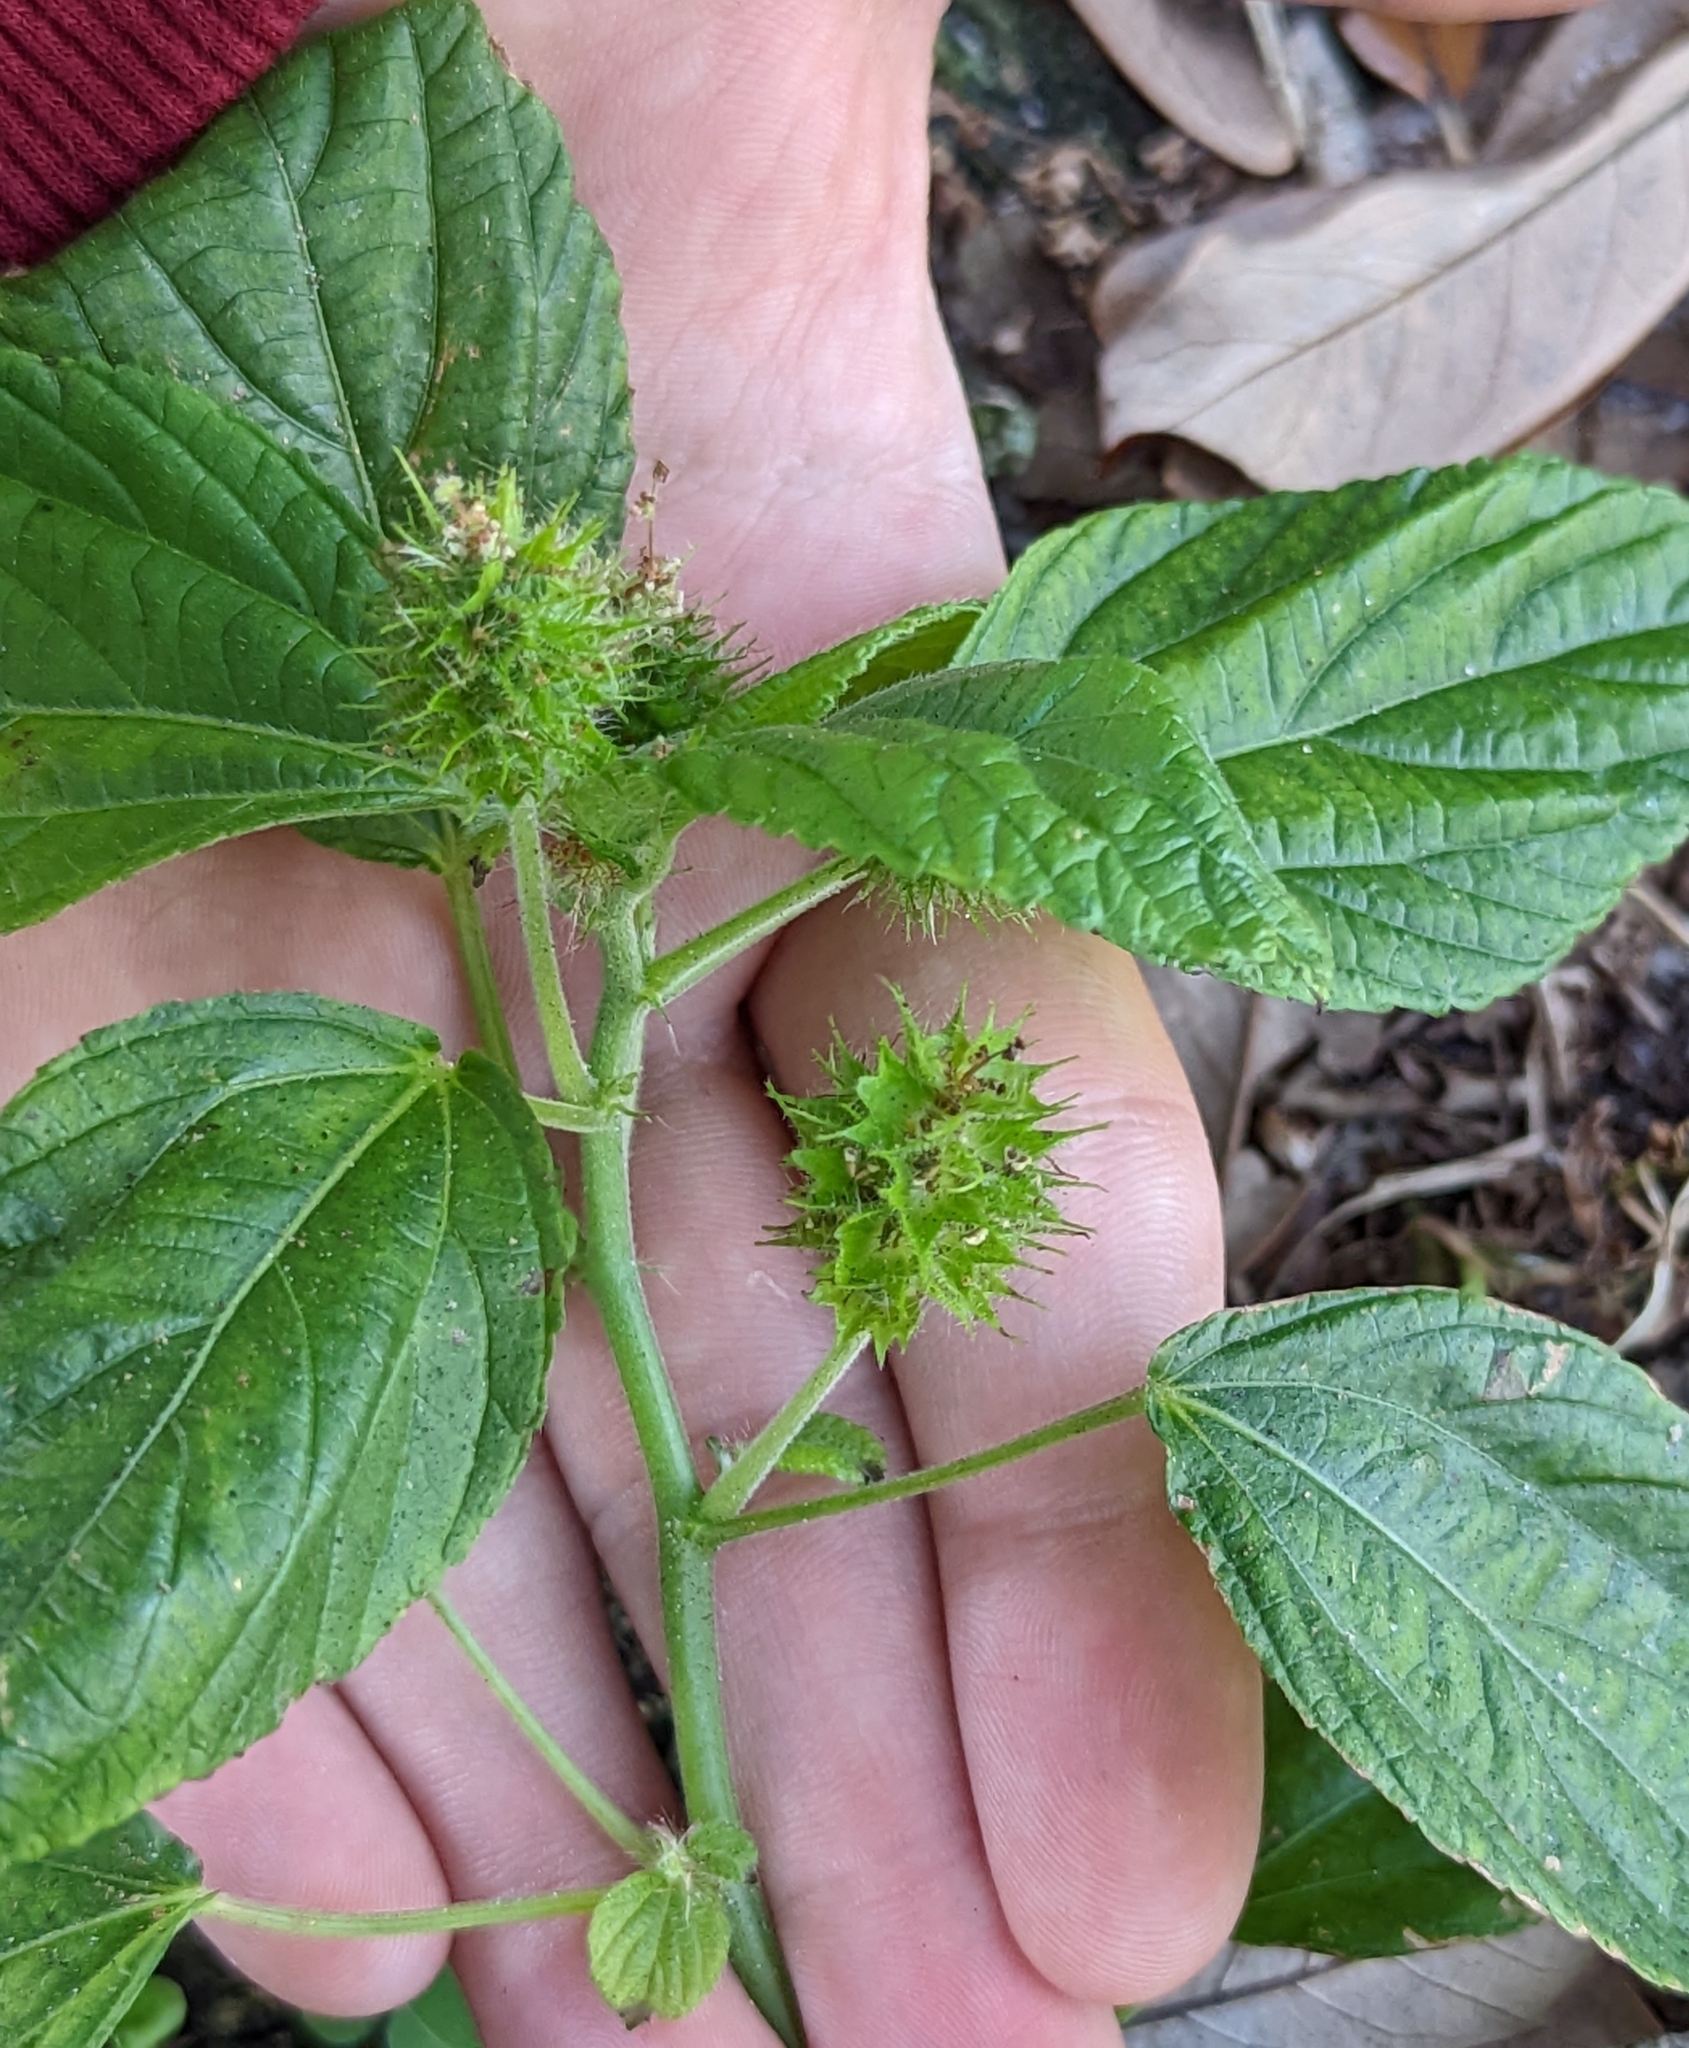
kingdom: Plantae
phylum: Tracheophyta
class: Magnoliopsida
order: Malpighiales
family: Euphorbiaceae
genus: Acalypha
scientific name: Acalypha arvensis
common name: Field copperleaf
